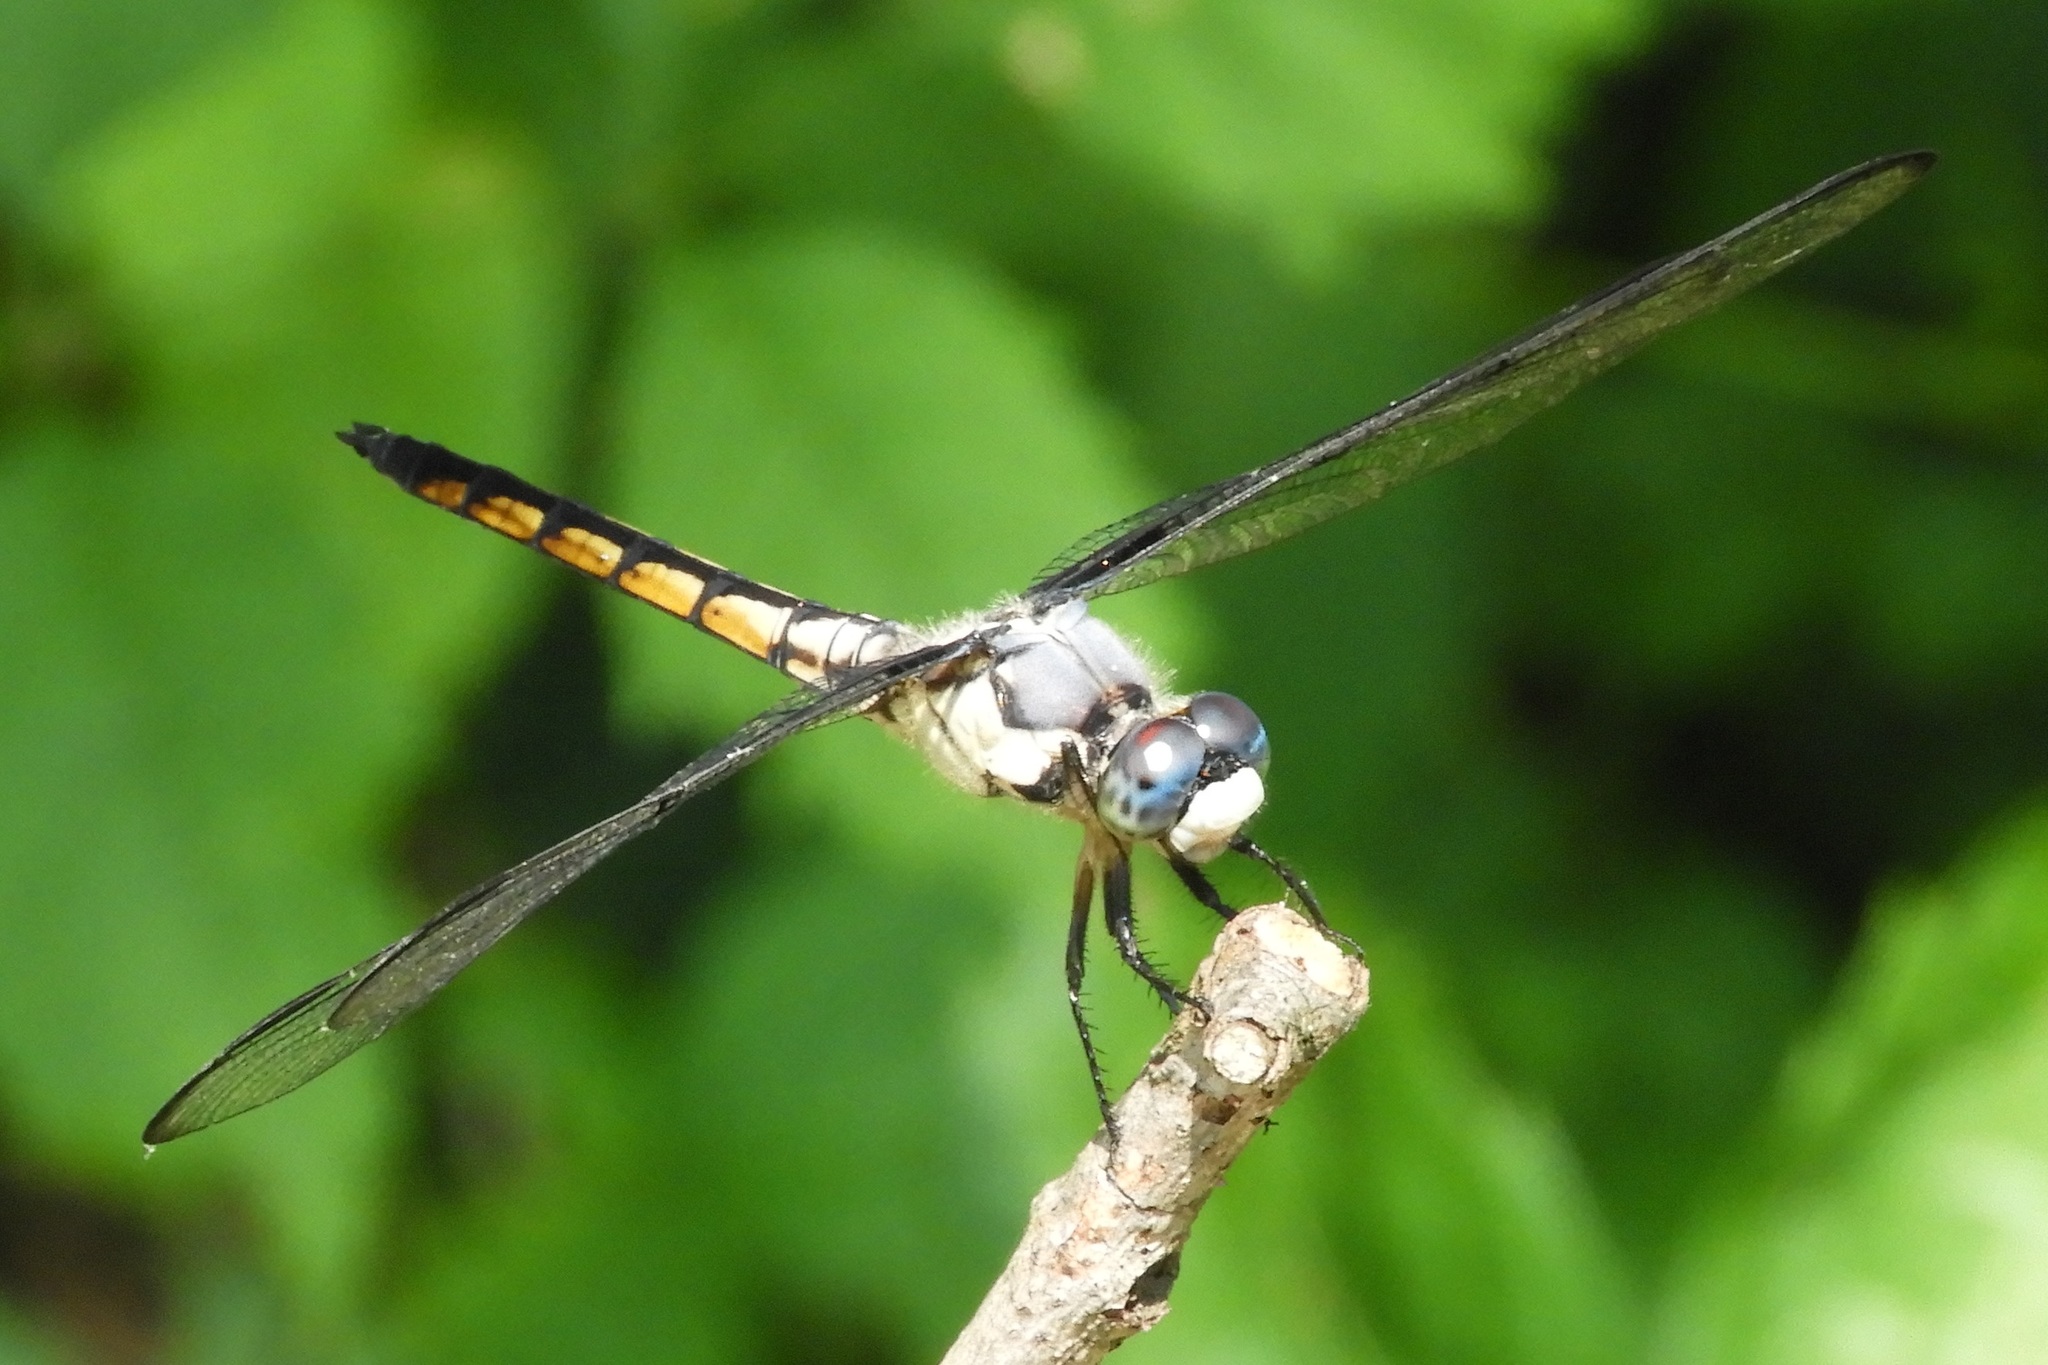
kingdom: Animalia
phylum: Arthropoda
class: Insecta
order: Odonata
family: Libellulidae
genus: Libellula
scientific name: Libellula vibrans
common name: Great blue skimmer
